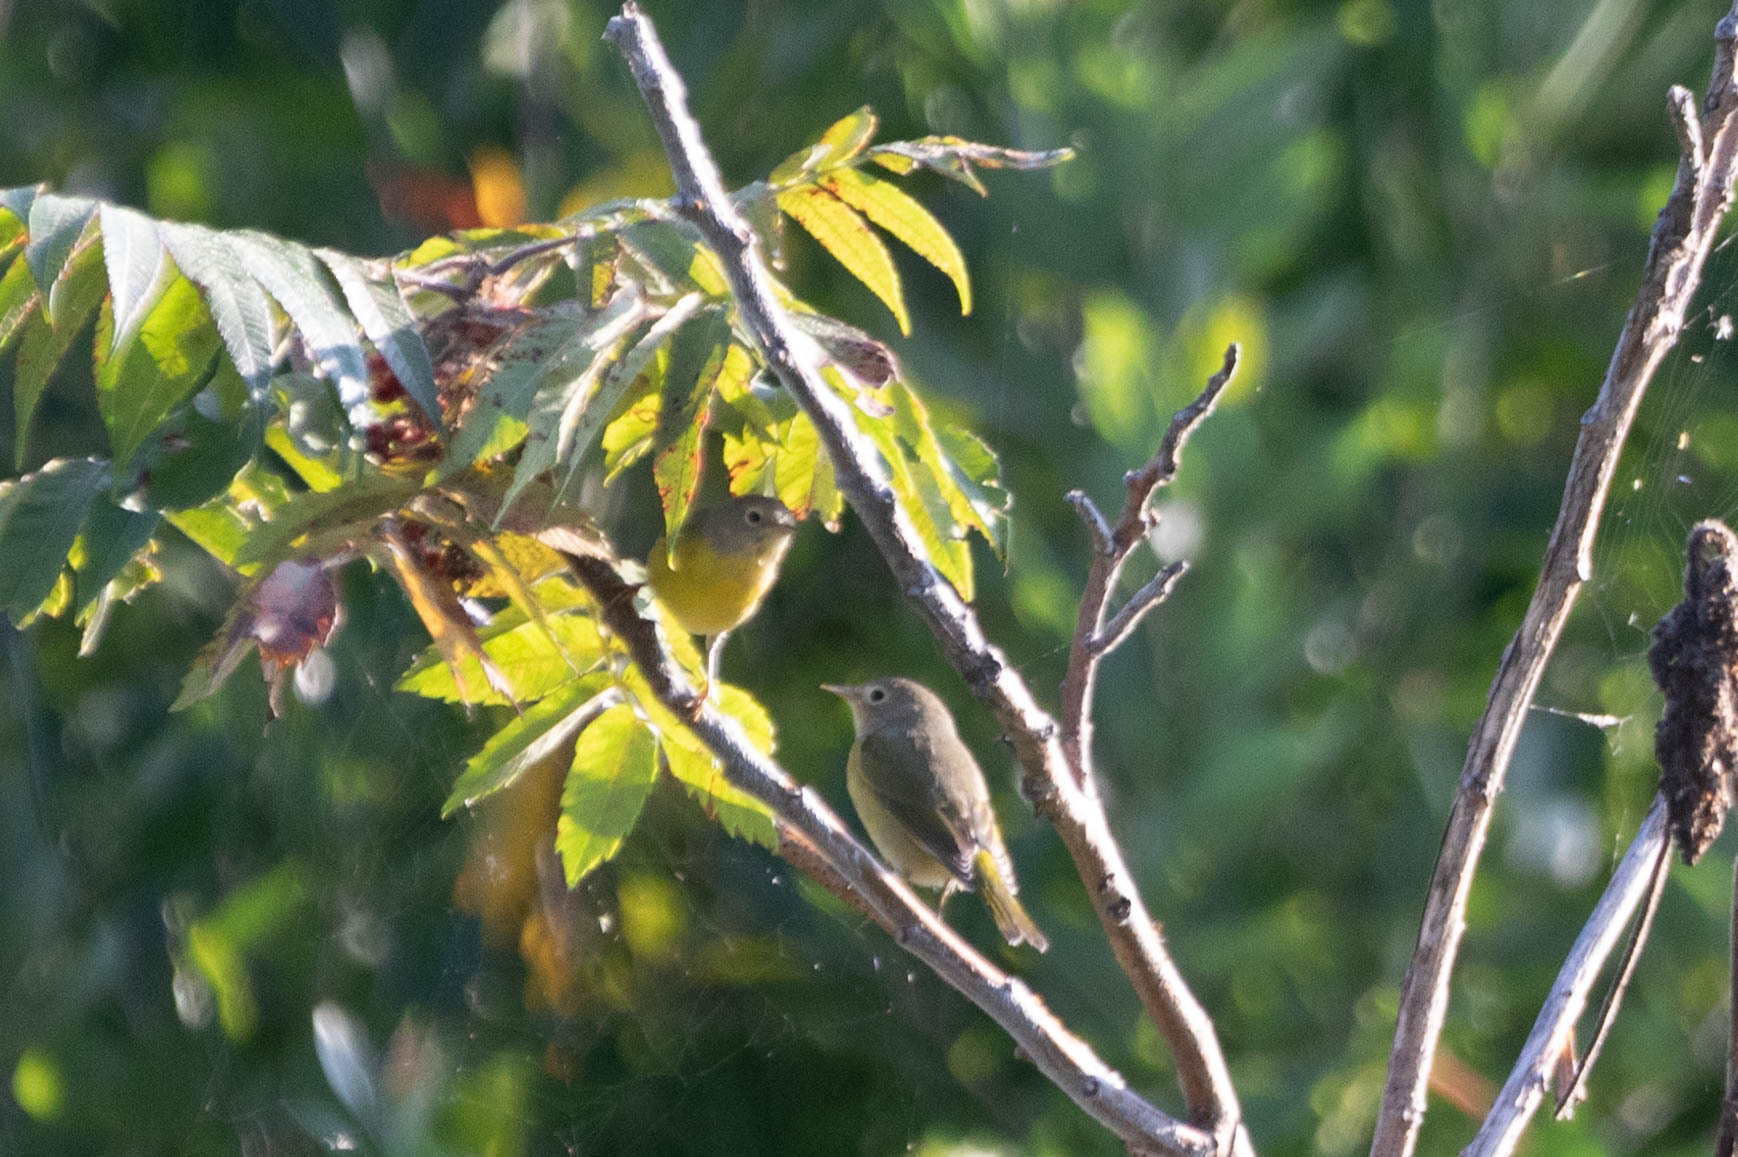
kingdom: Animalia
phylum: Chordata
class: Aves
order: Passeriformes
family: Parulidae
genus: Leiothlypis
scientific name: Leiothlypis ruficapilla
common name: Nashville warbler
